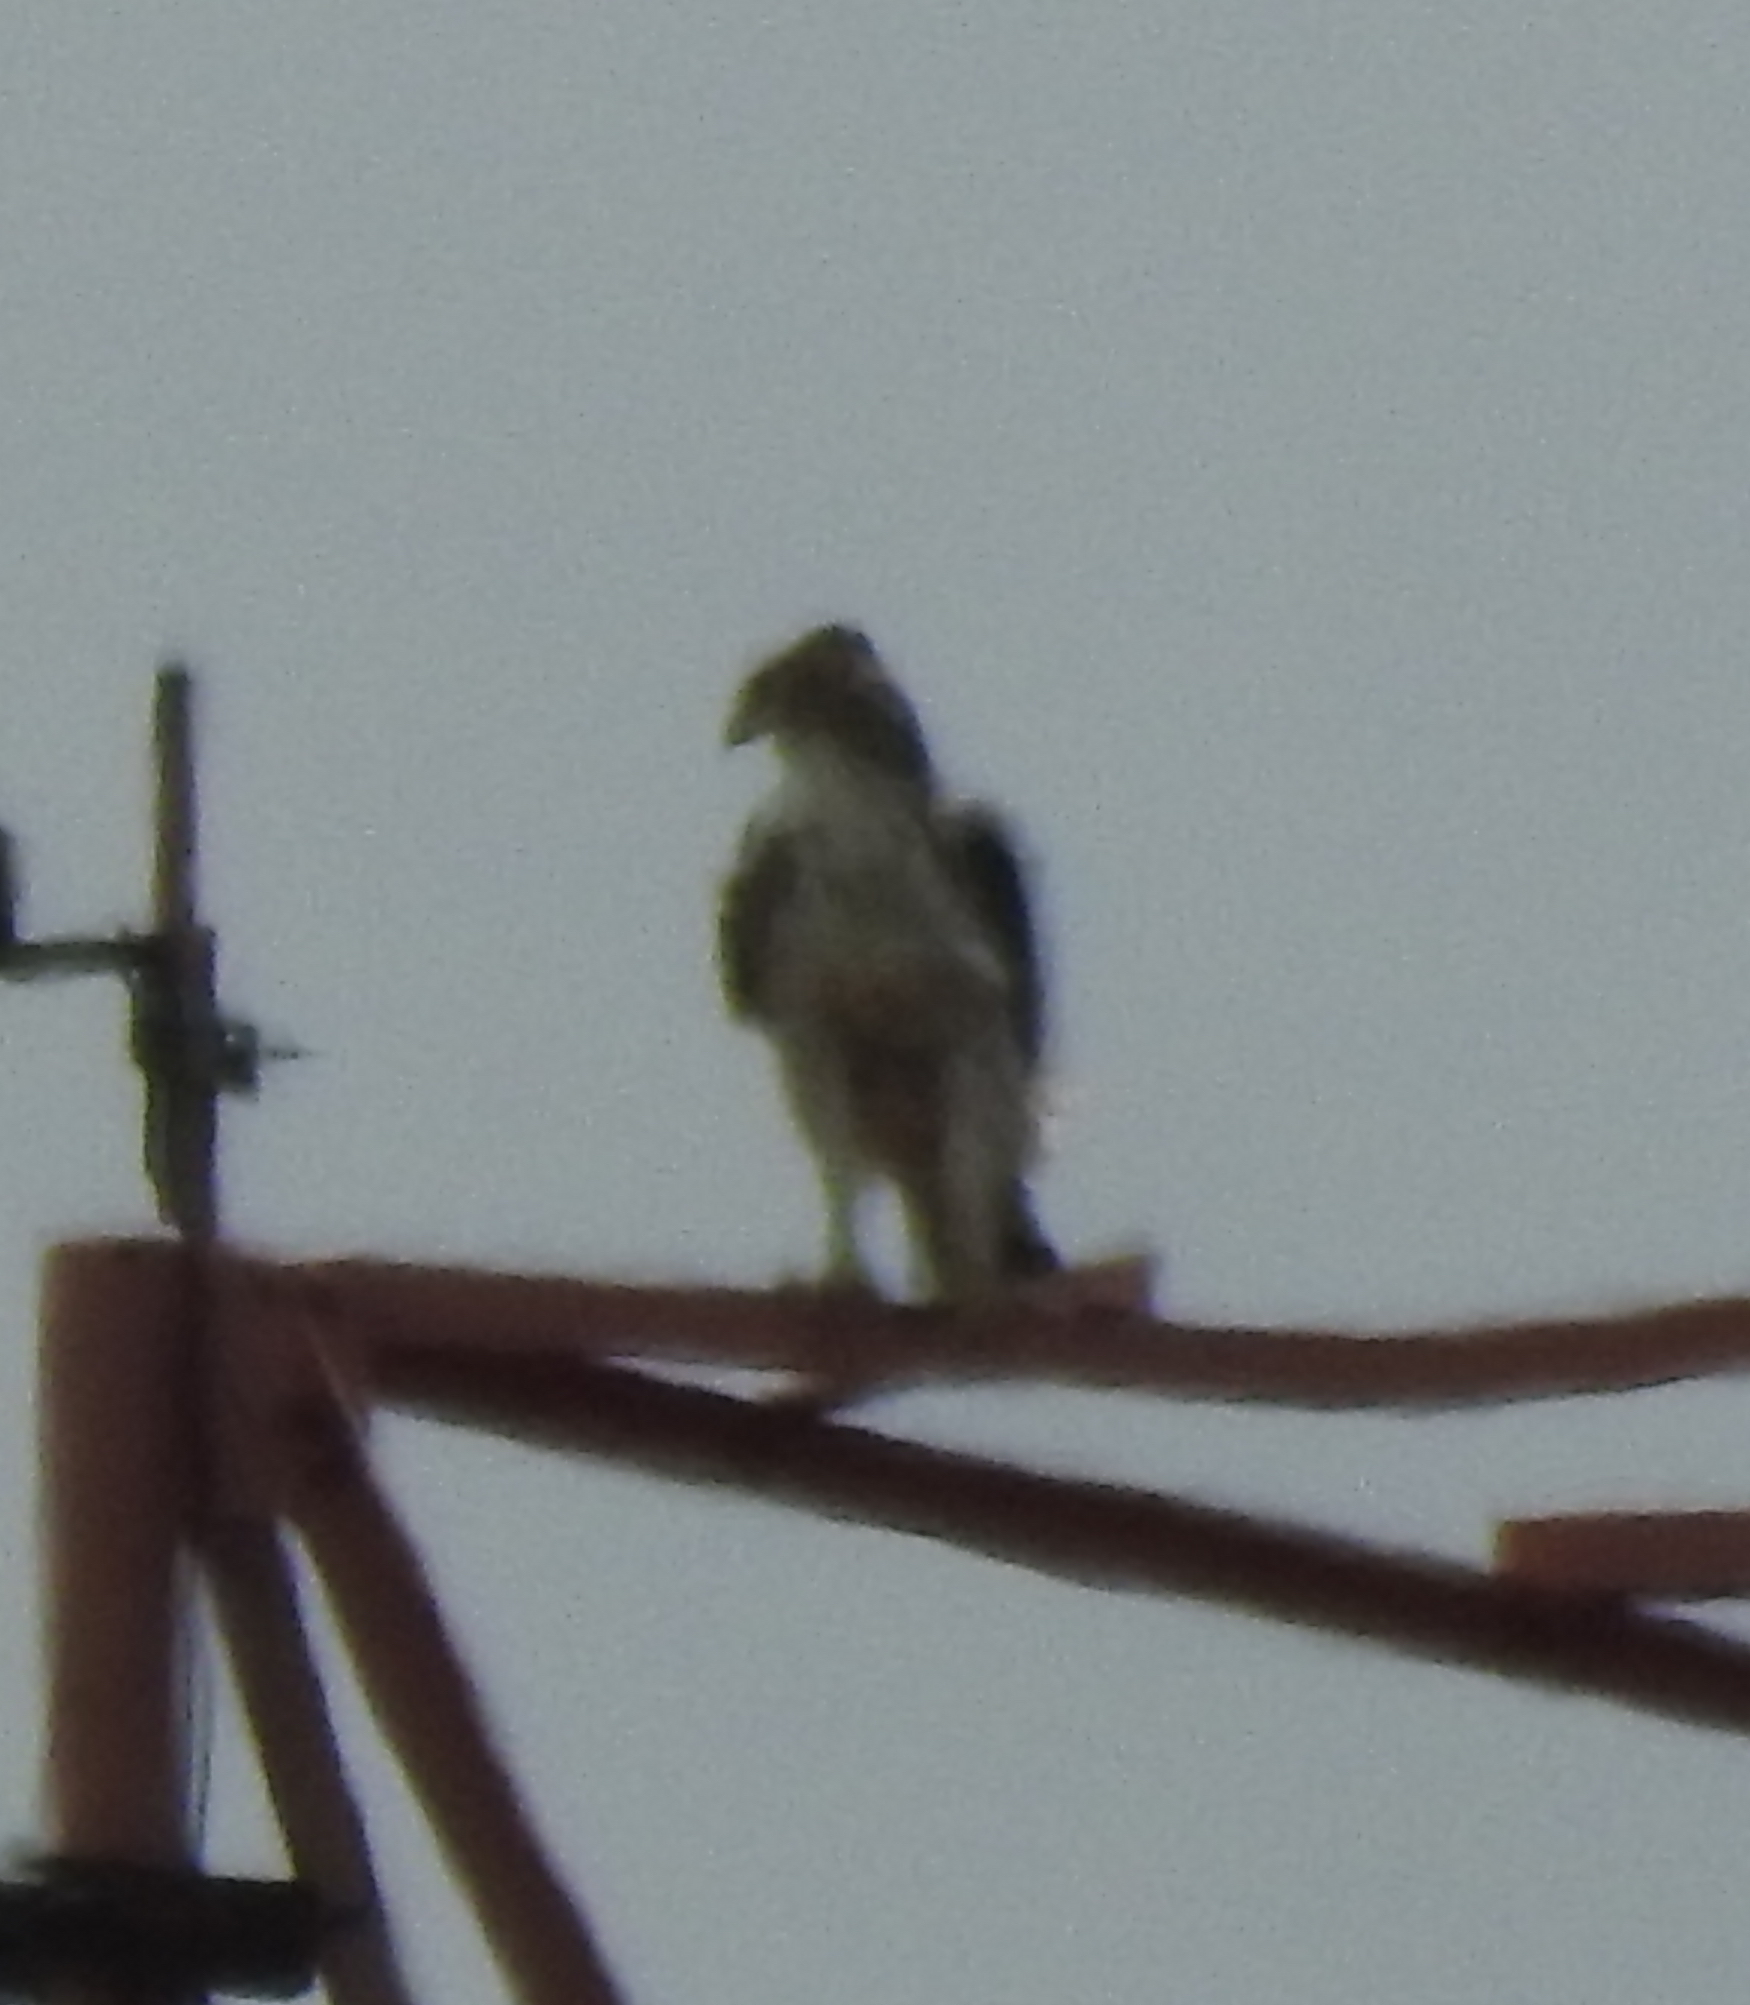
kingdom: Animalia
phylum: Chordata
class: Aves
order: Accipitriformes
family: Accipitridae
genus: Nisaetus
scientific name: Nisaetus cirrhatus
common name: Changeable hawk-eagle
